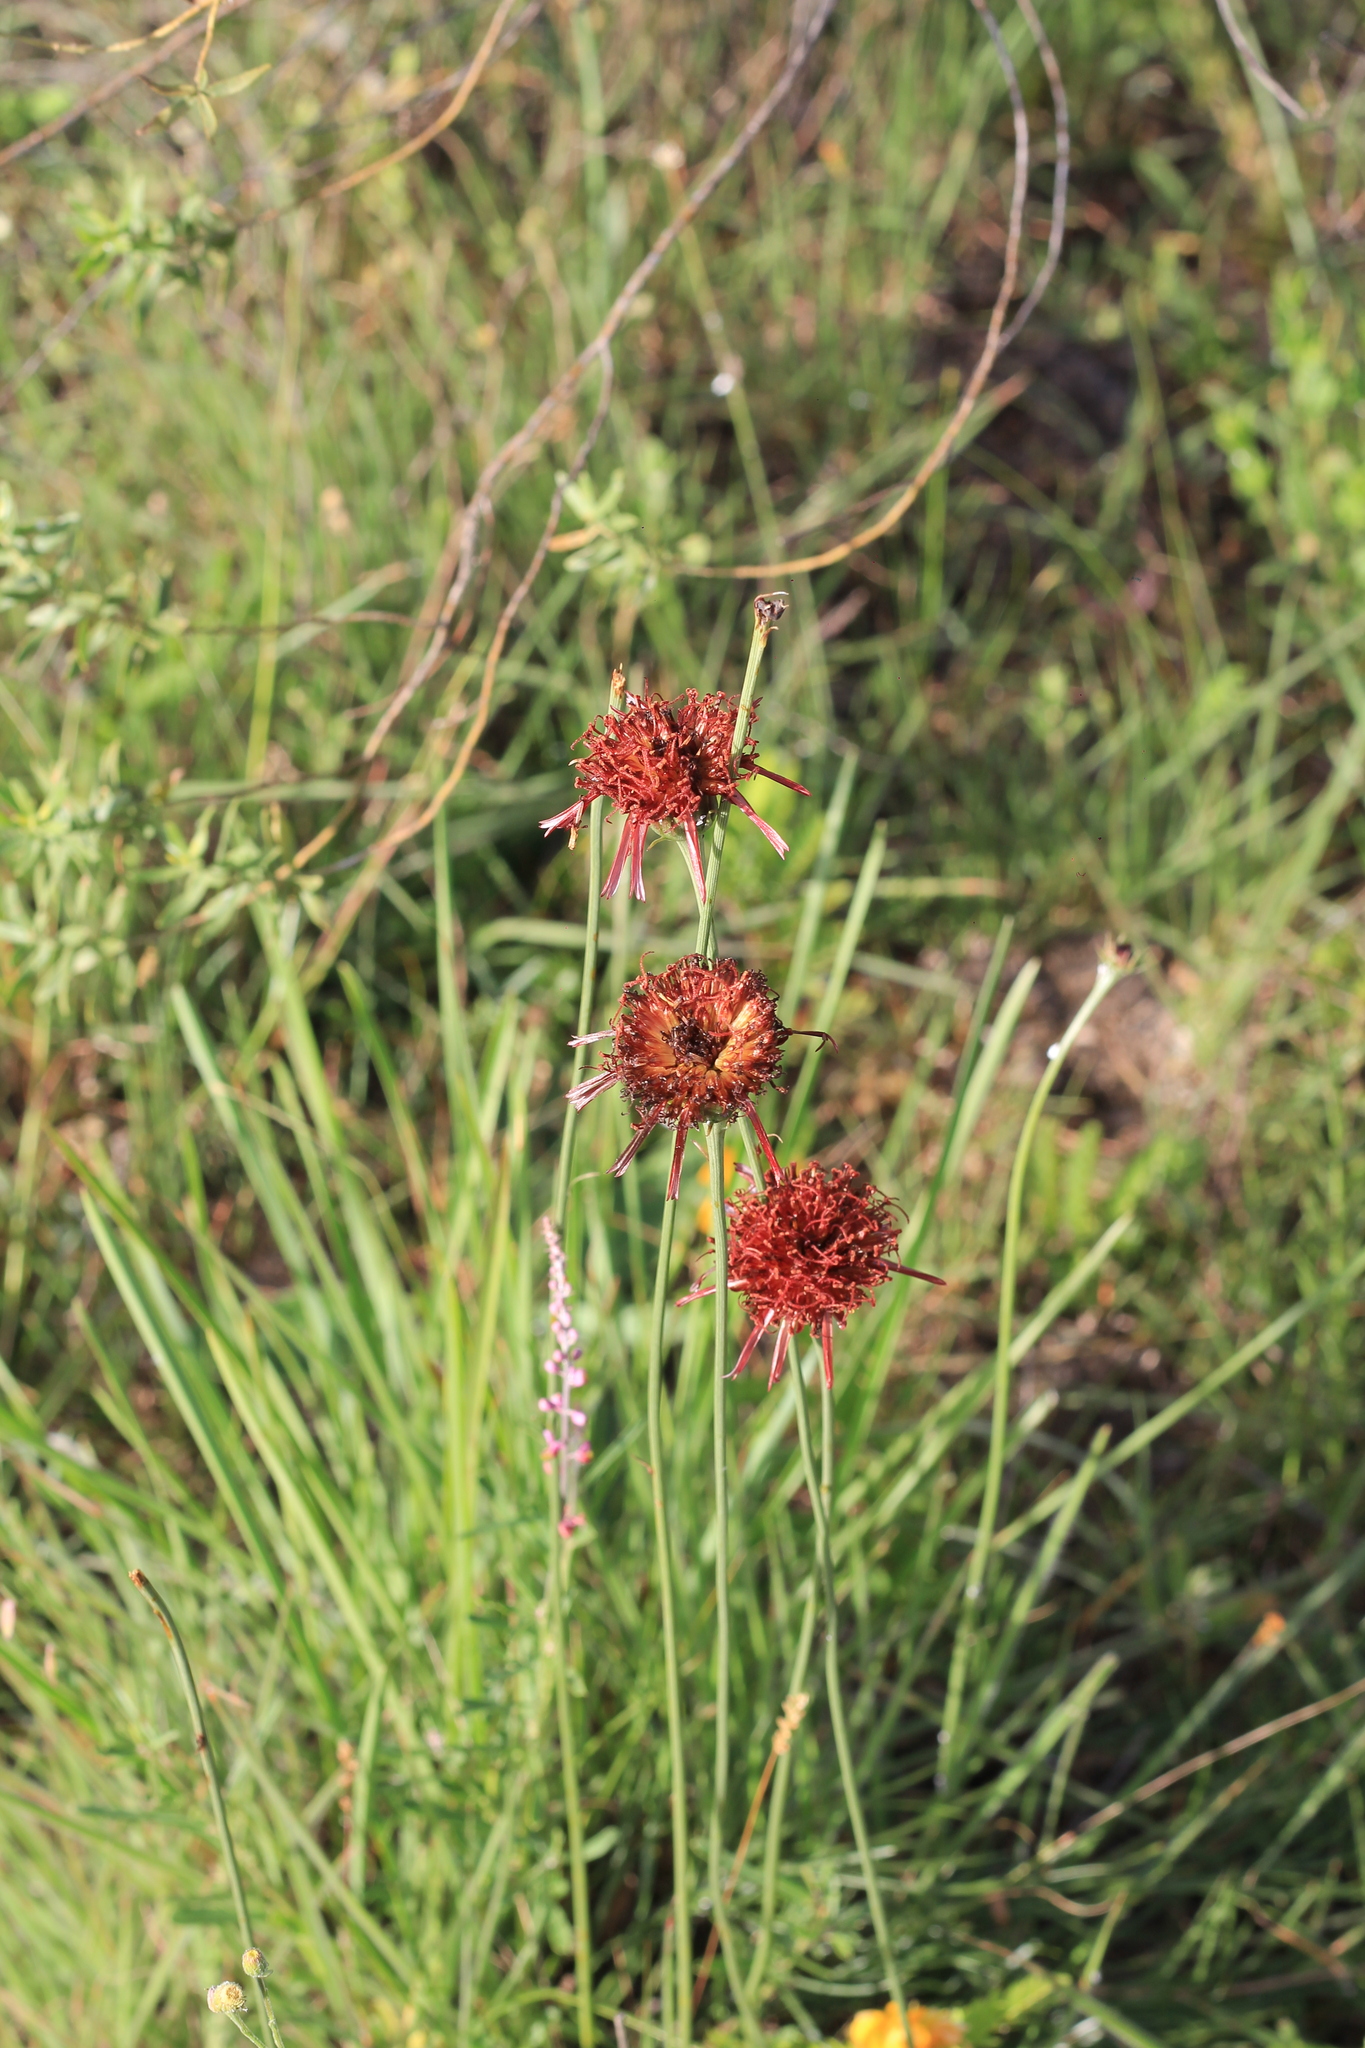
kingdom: Plantae
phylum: Tracheophyta
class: Magnoliopsida
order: Asterales
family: Asteraceae
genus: Isostigma
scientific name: Isostigma peucedanifolium
